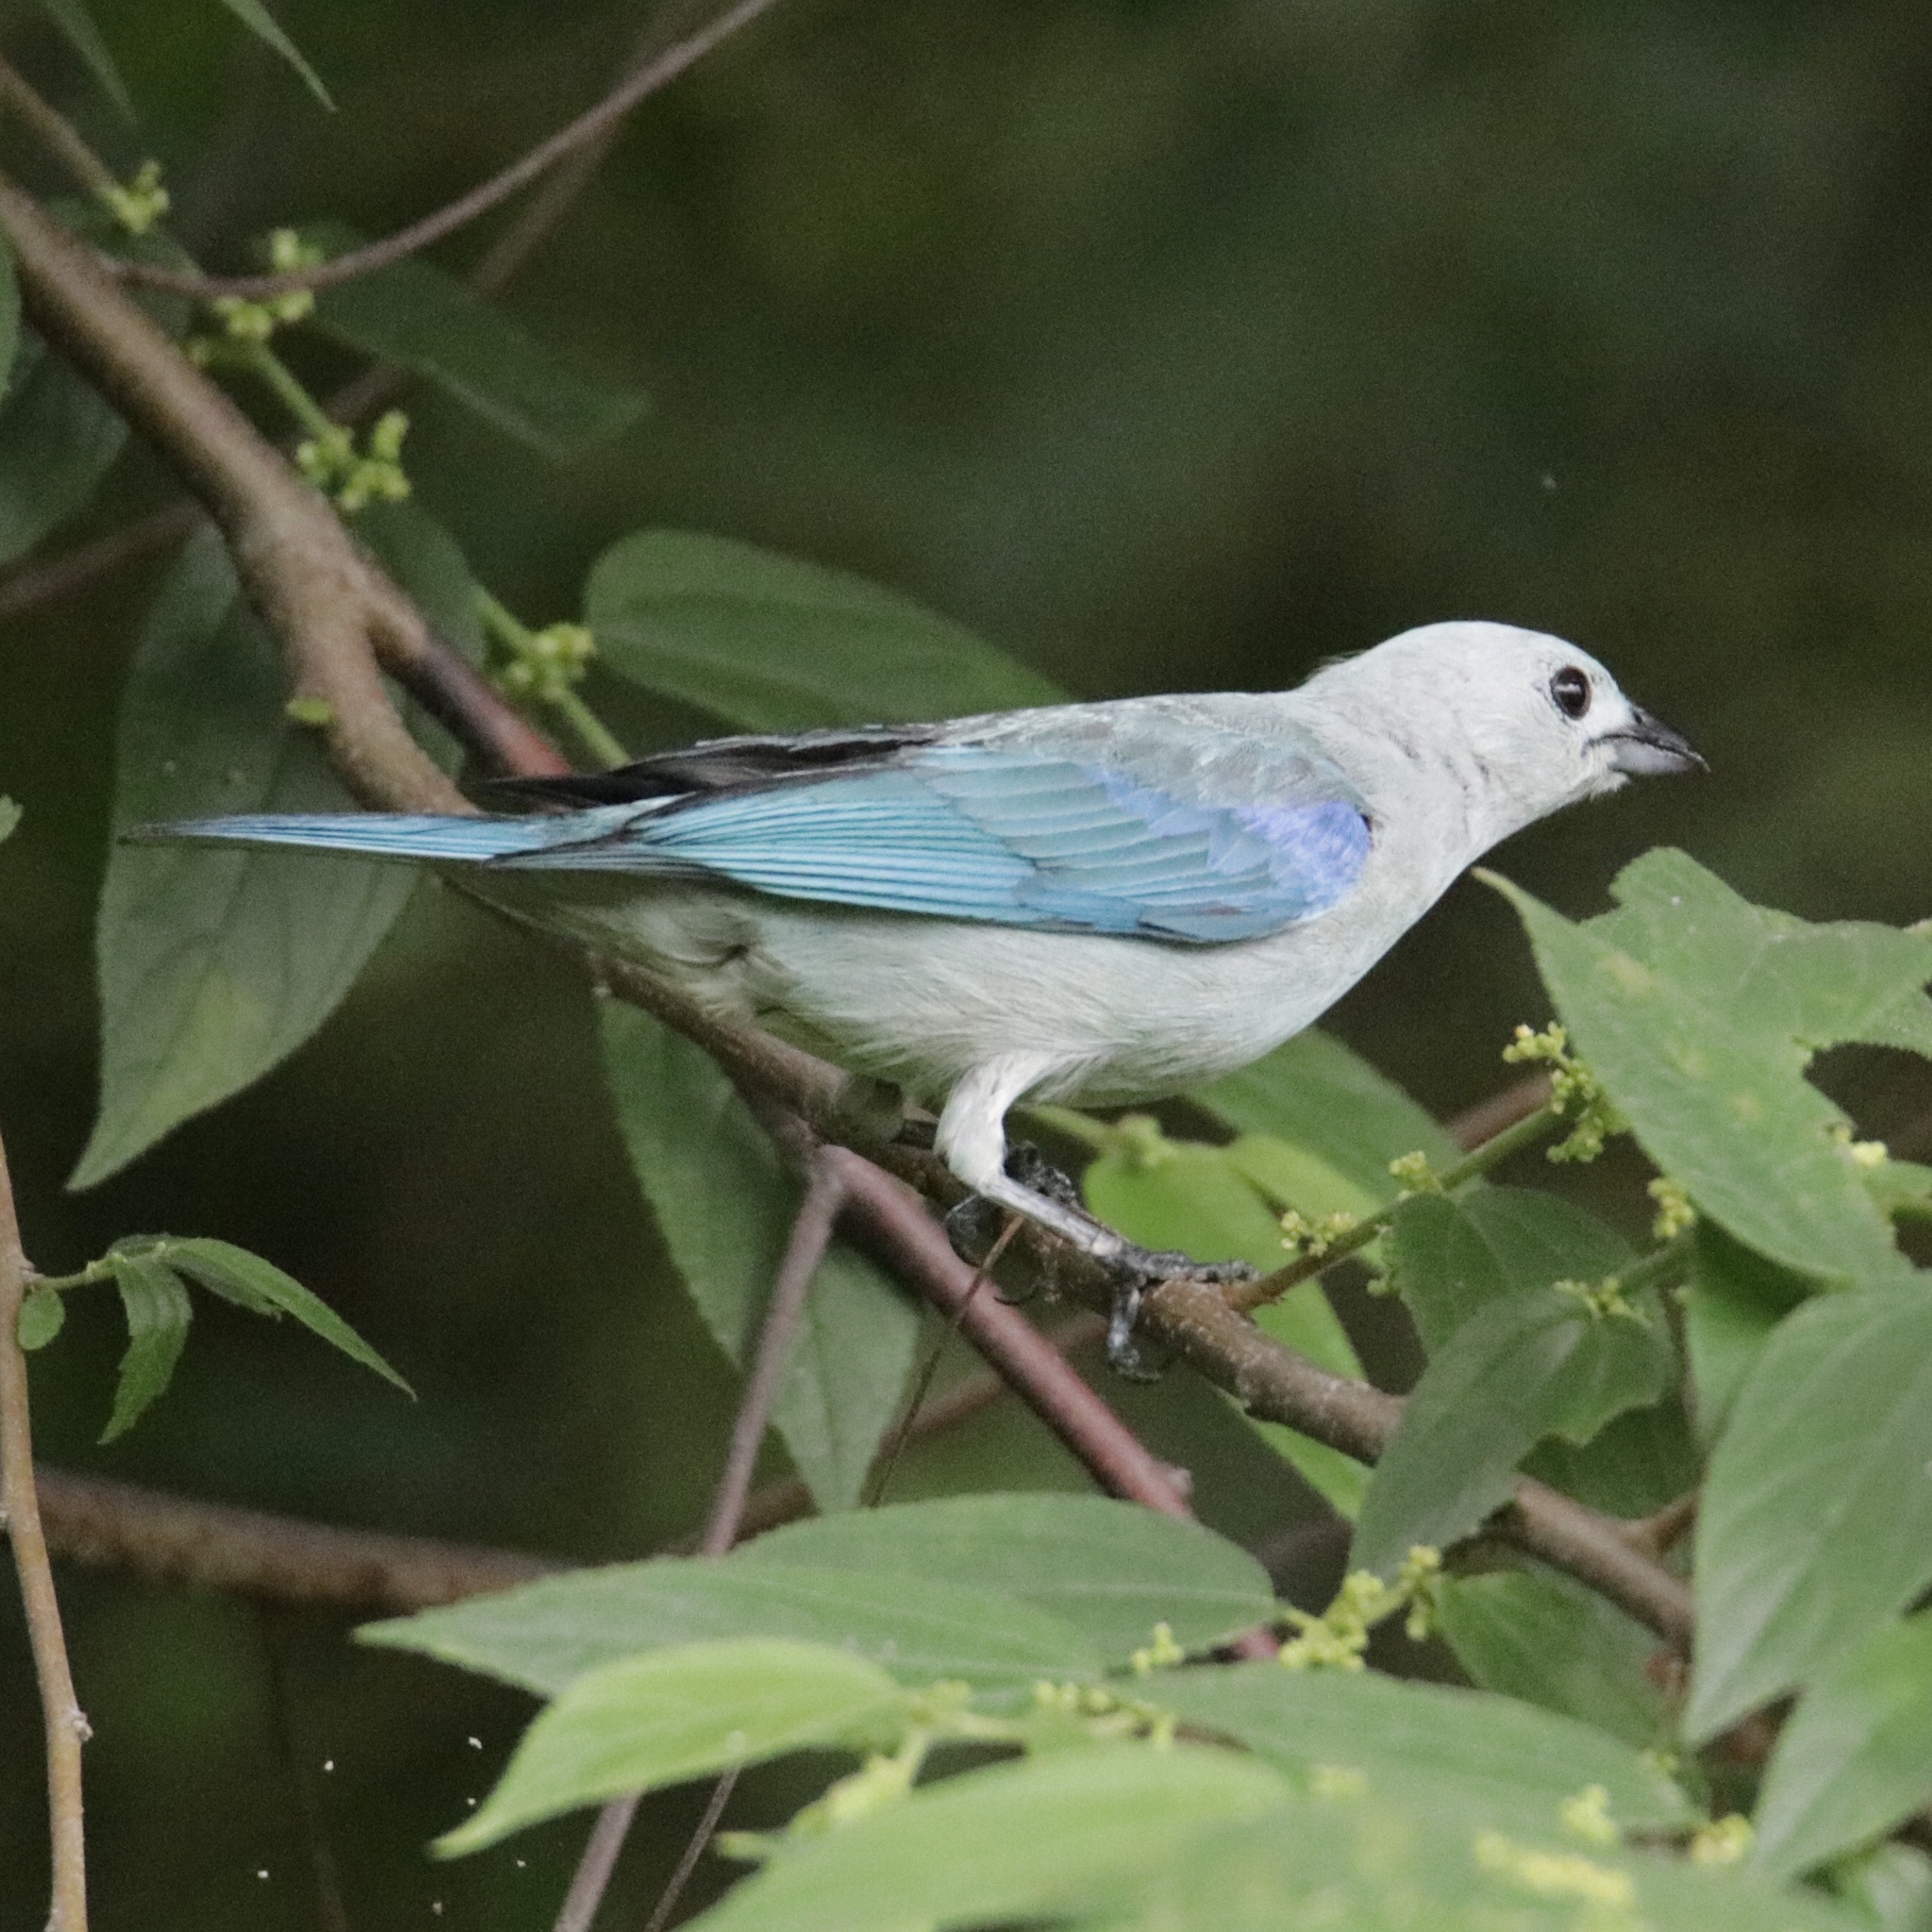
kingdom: Animalia
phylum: Chordata
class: Aves
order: Passeriformes
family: Thraupidae
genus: Thraupis
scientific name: Thraupis episcopus
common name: Blue-grey tanager
